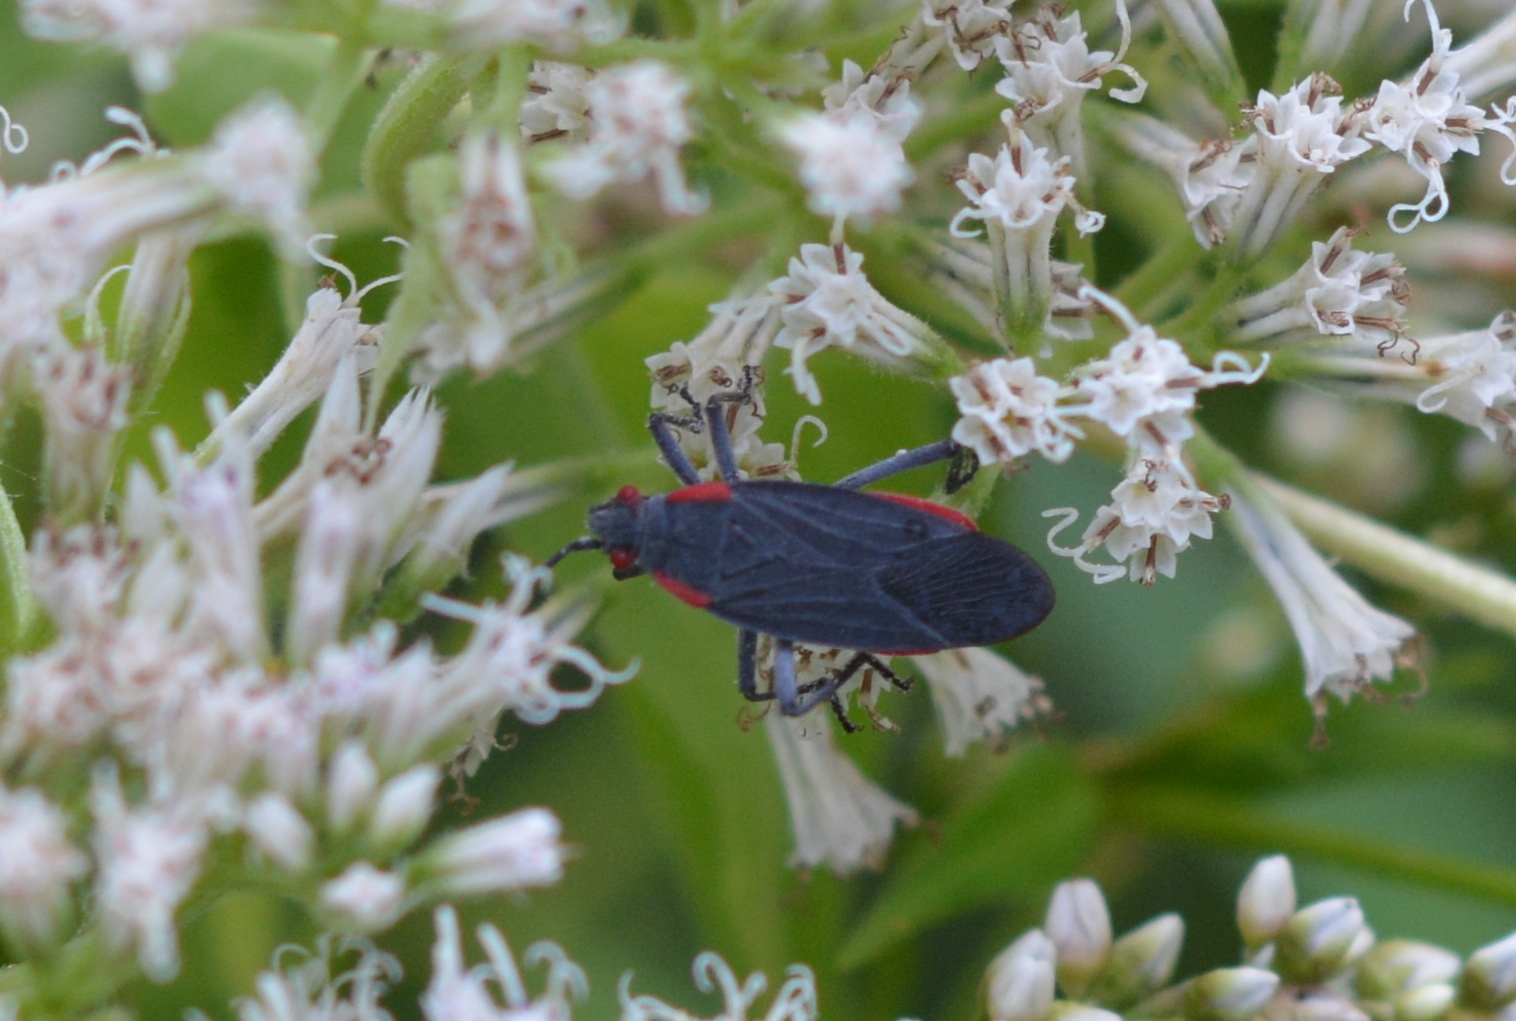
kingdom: Animalia
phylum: Arthropoda
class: Insecta
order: Hemiptera
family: Rhopalidae
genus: Jadera
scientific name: Jadera haematoloma
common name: Red-shouldered bug
